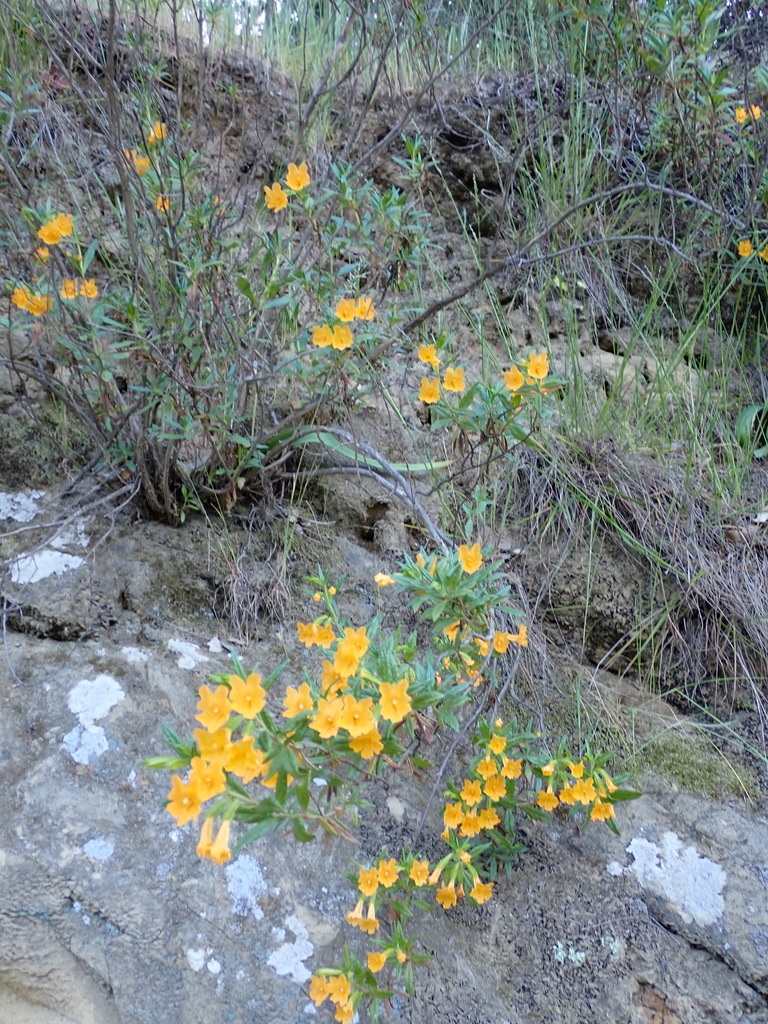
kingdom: Plantae
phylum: Tracheophyta
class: Magnoliopsida
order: Lamiales
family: Phrymaceae
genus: Diplacus
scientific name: Diplacus aurantiacus
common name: Bush monkey-flower
